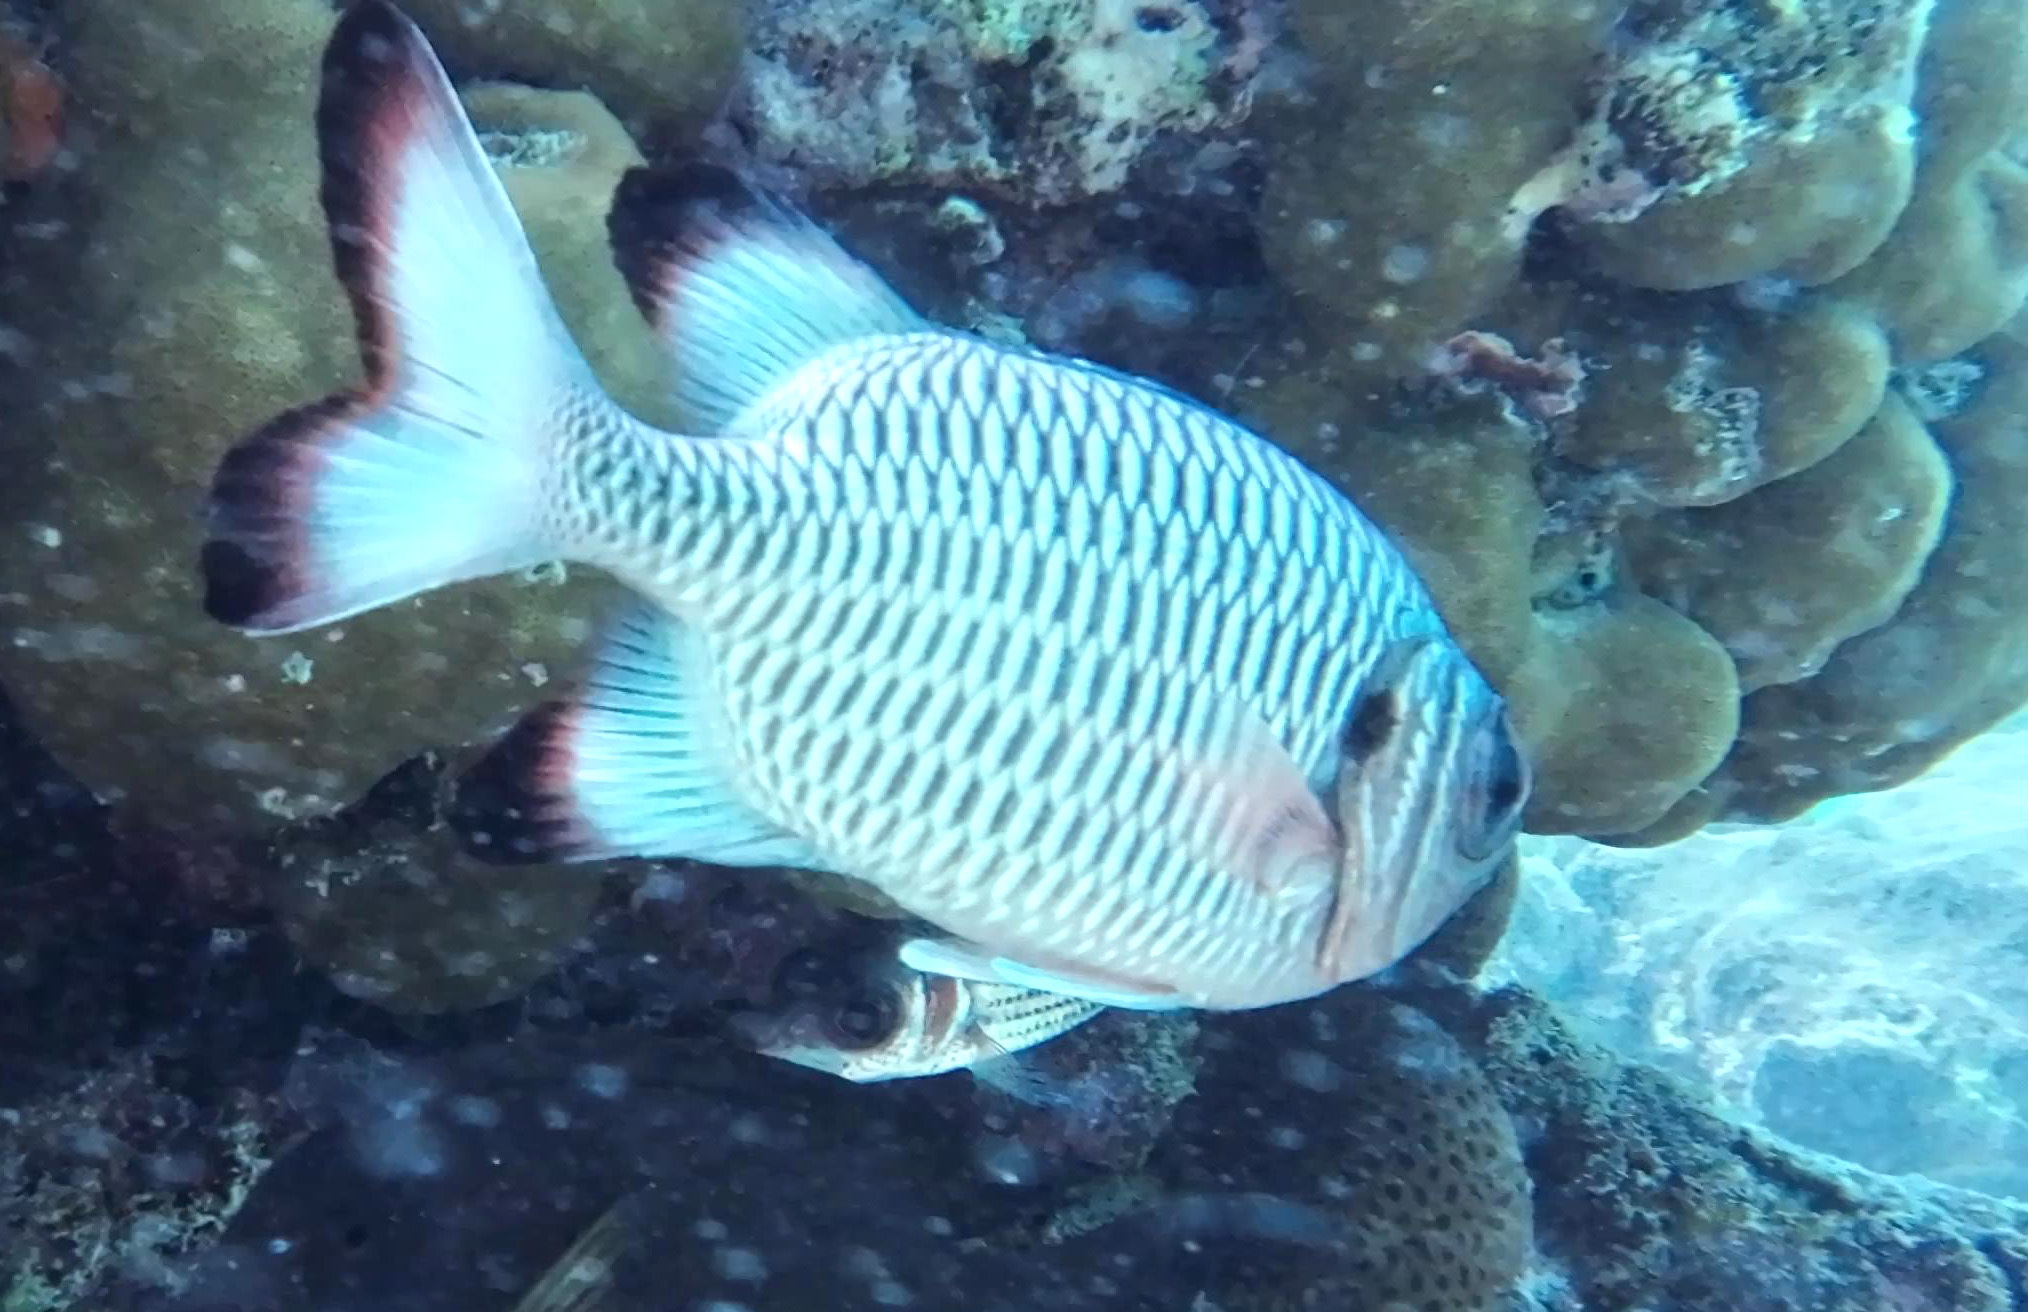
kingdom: Animalia
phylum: Chordata
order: Beryciformes
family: Holocentridae
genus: Myripristis
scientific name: Myripristis violacea
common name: Lattice soldierfish
